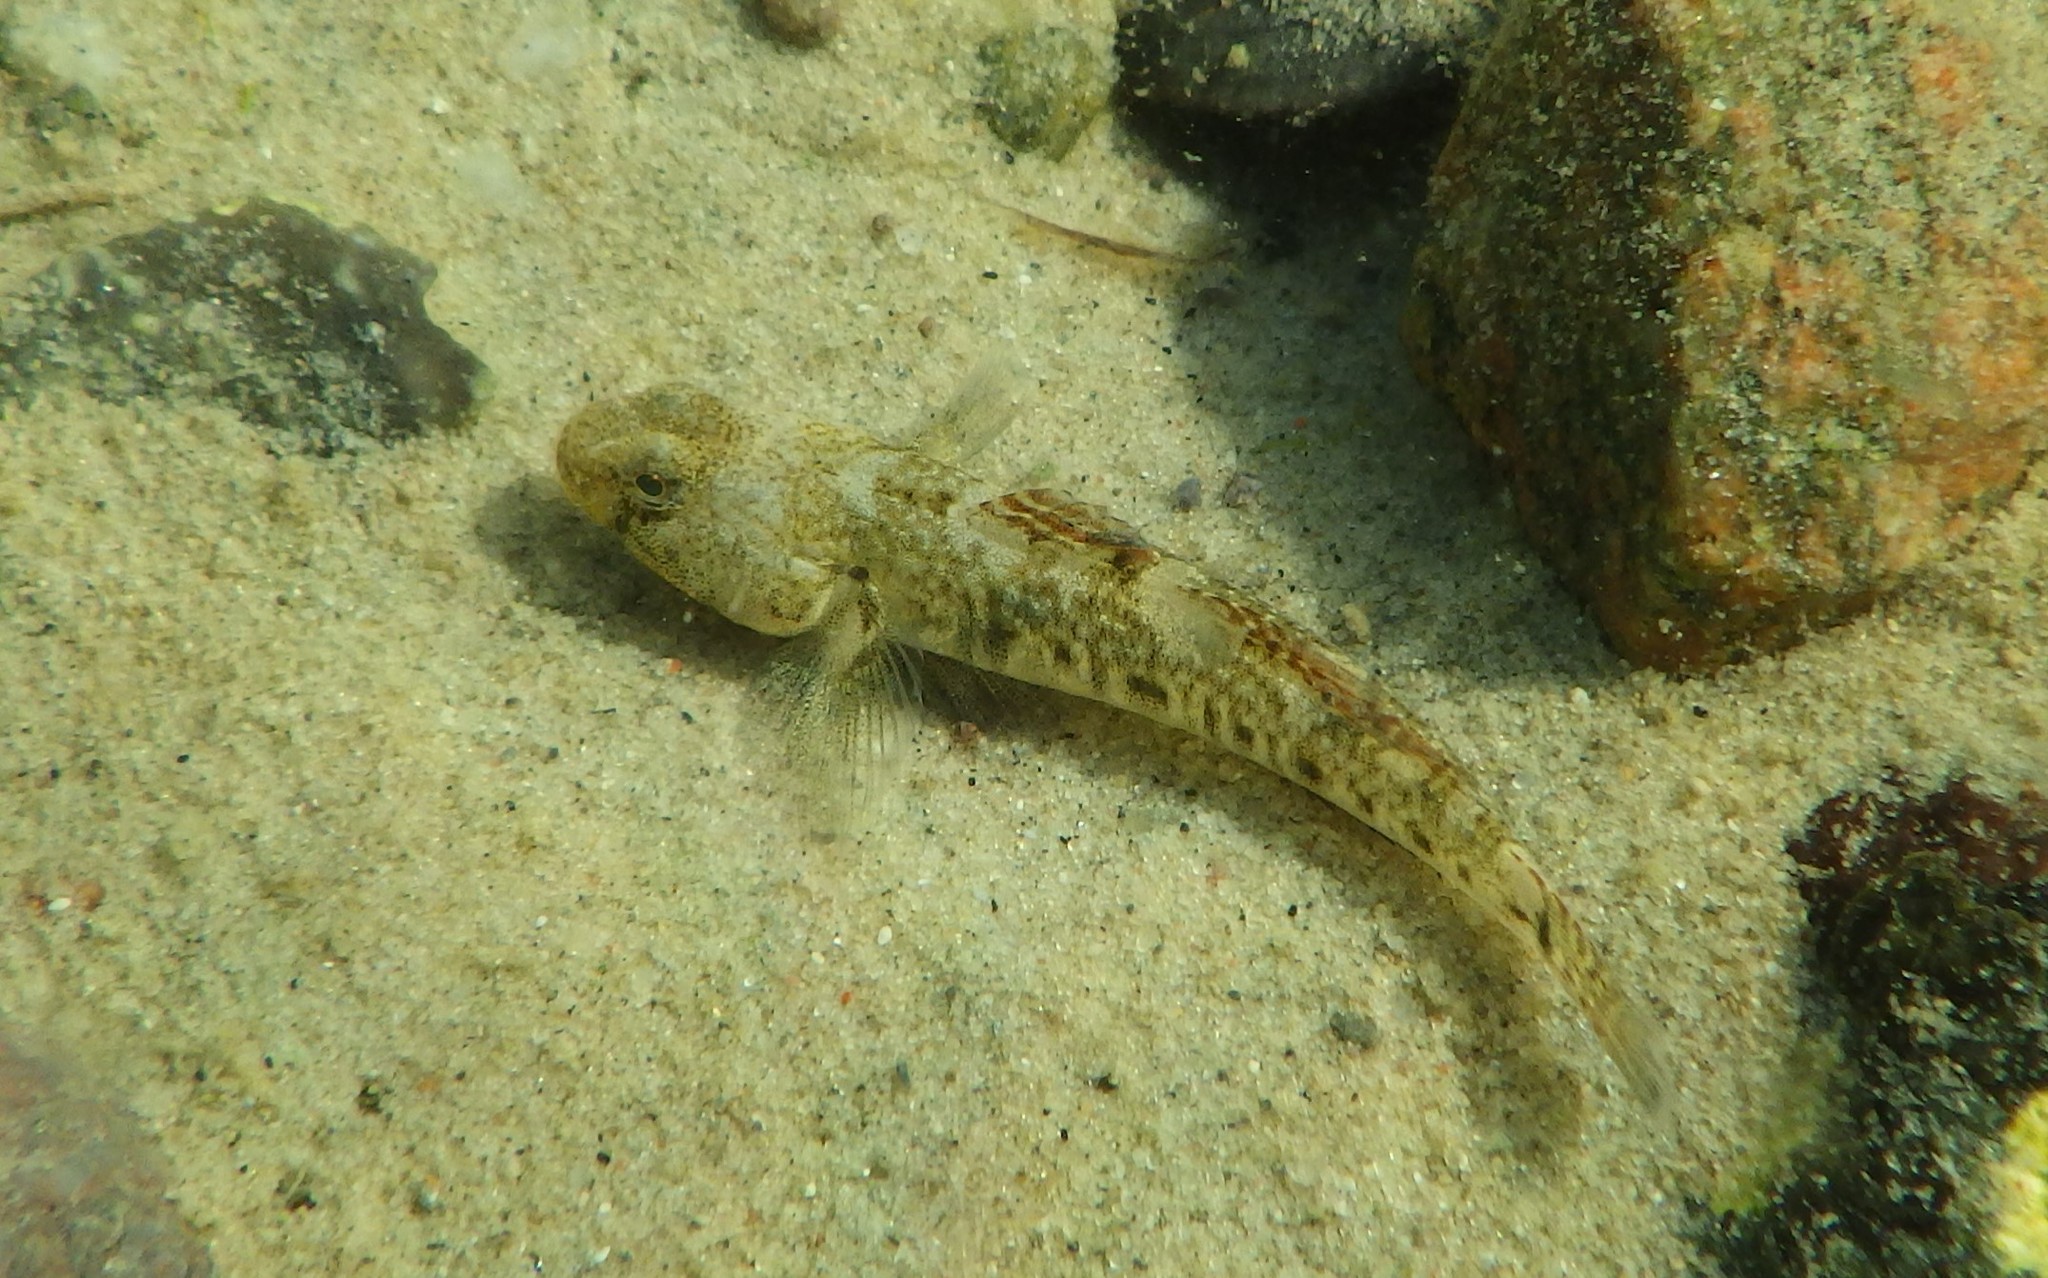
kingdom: Animalia
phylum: Chordata
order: Perciformes
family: Gobiidae
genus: Pomatoschistus
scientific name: Pomatoschistus microps
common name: Common goby
